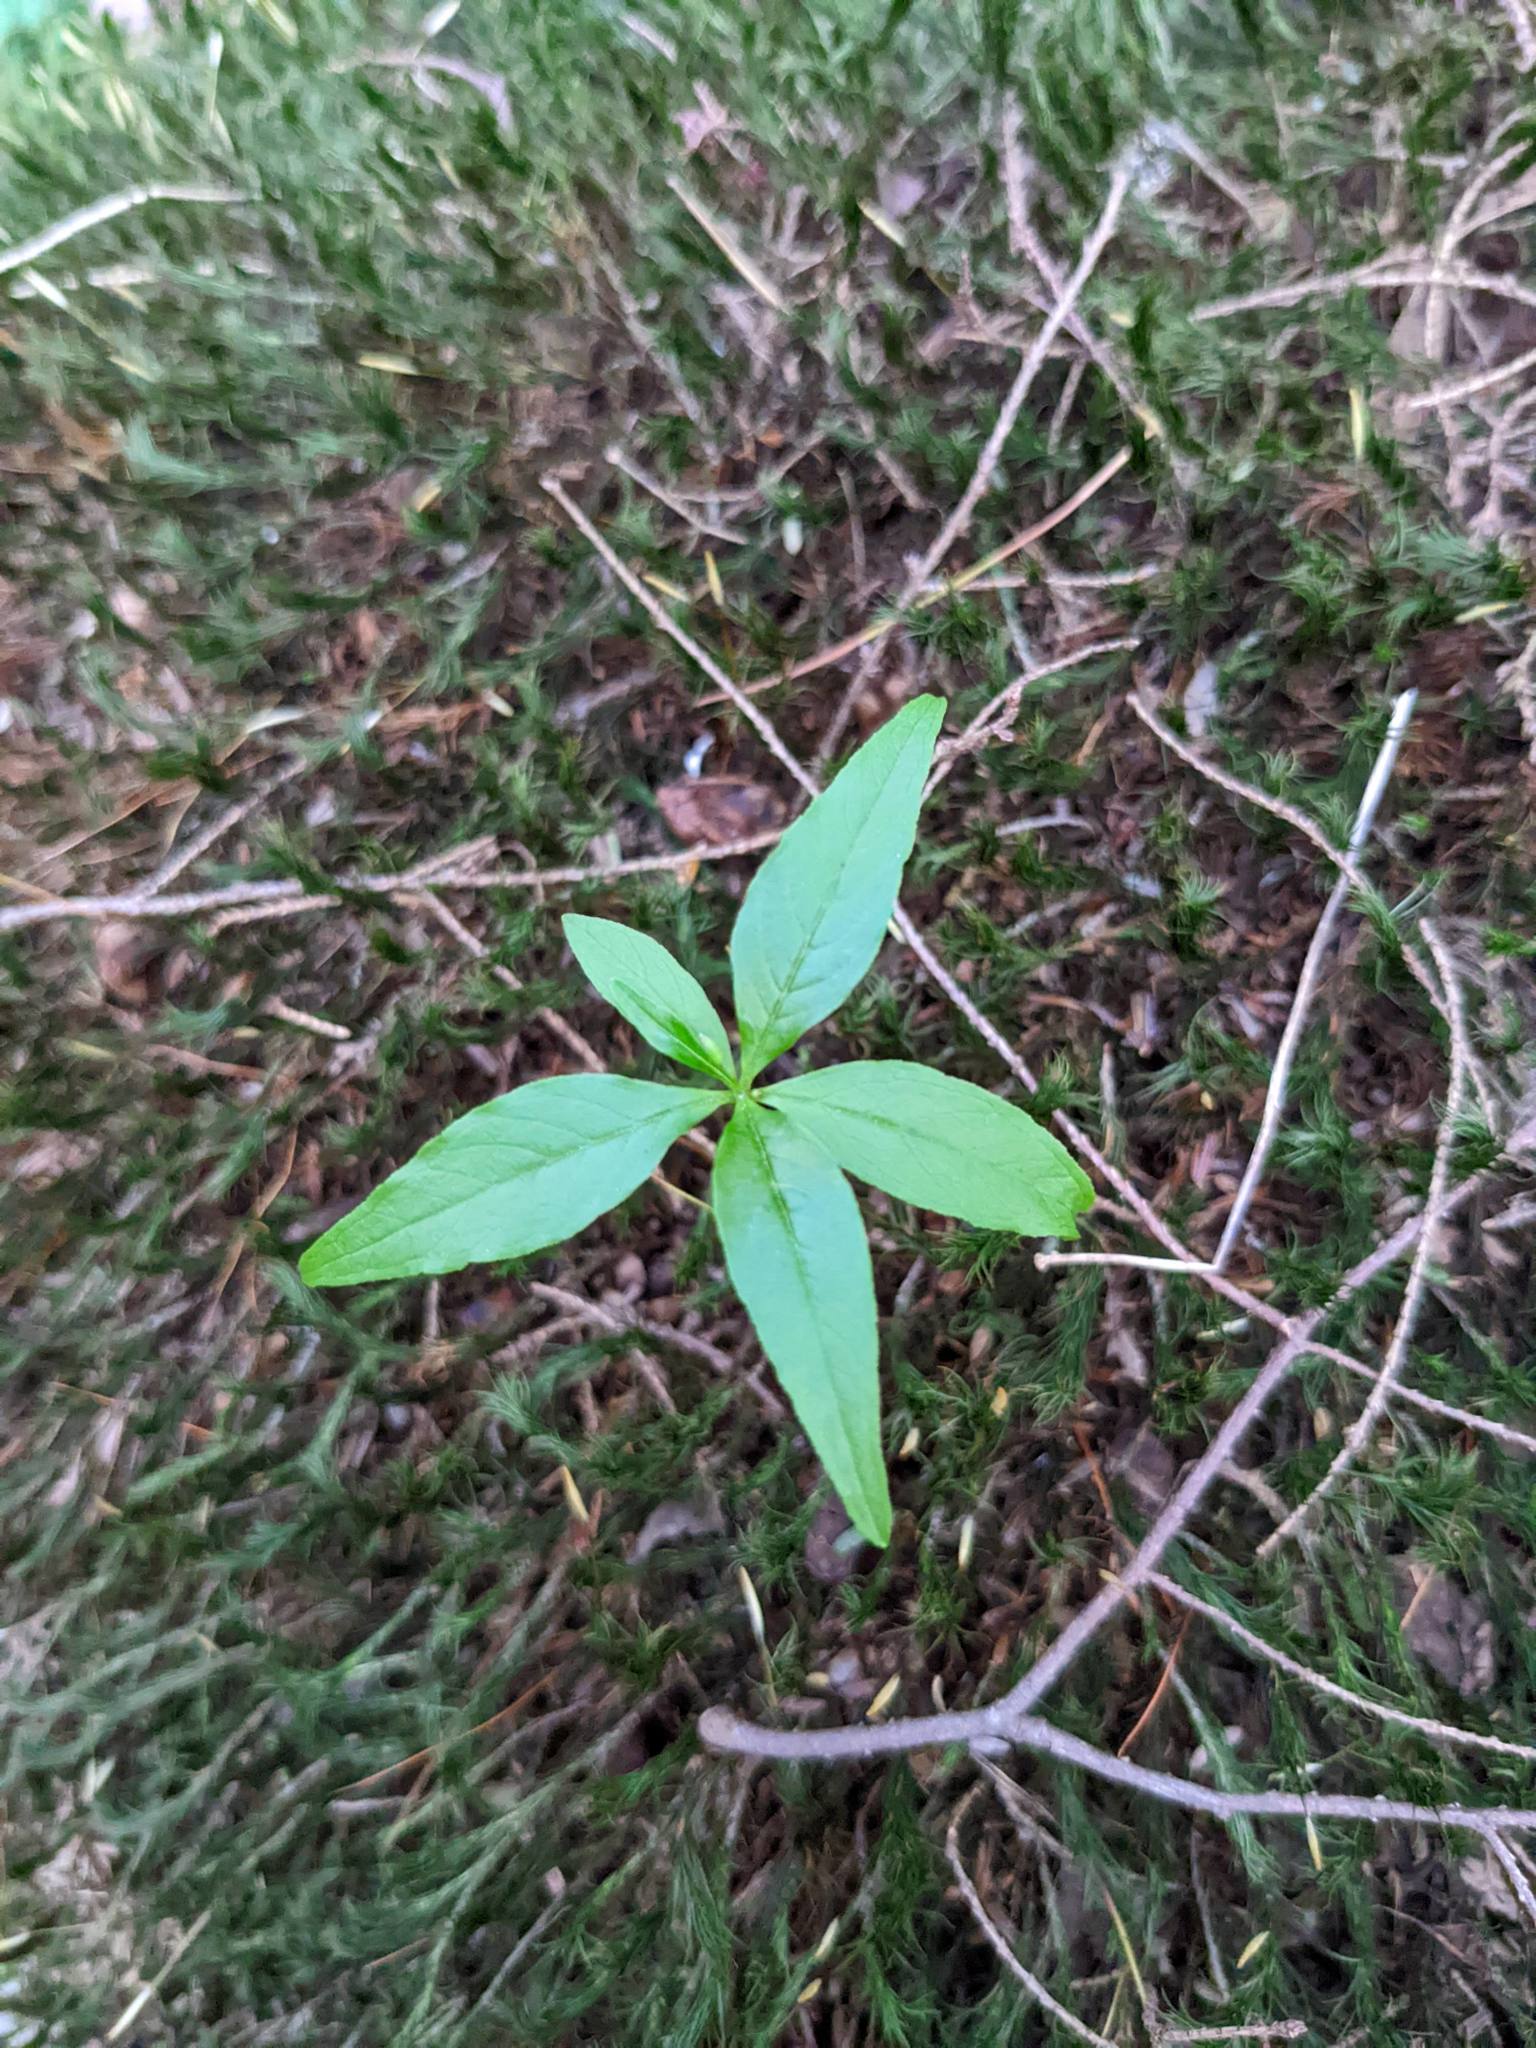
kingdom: Plantae
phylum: Tracheophyta
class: Magnoliopsida
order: Ericales
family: Primulaceae
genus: Lysimachia
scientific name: Lysimachia borealis
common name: American starflower
